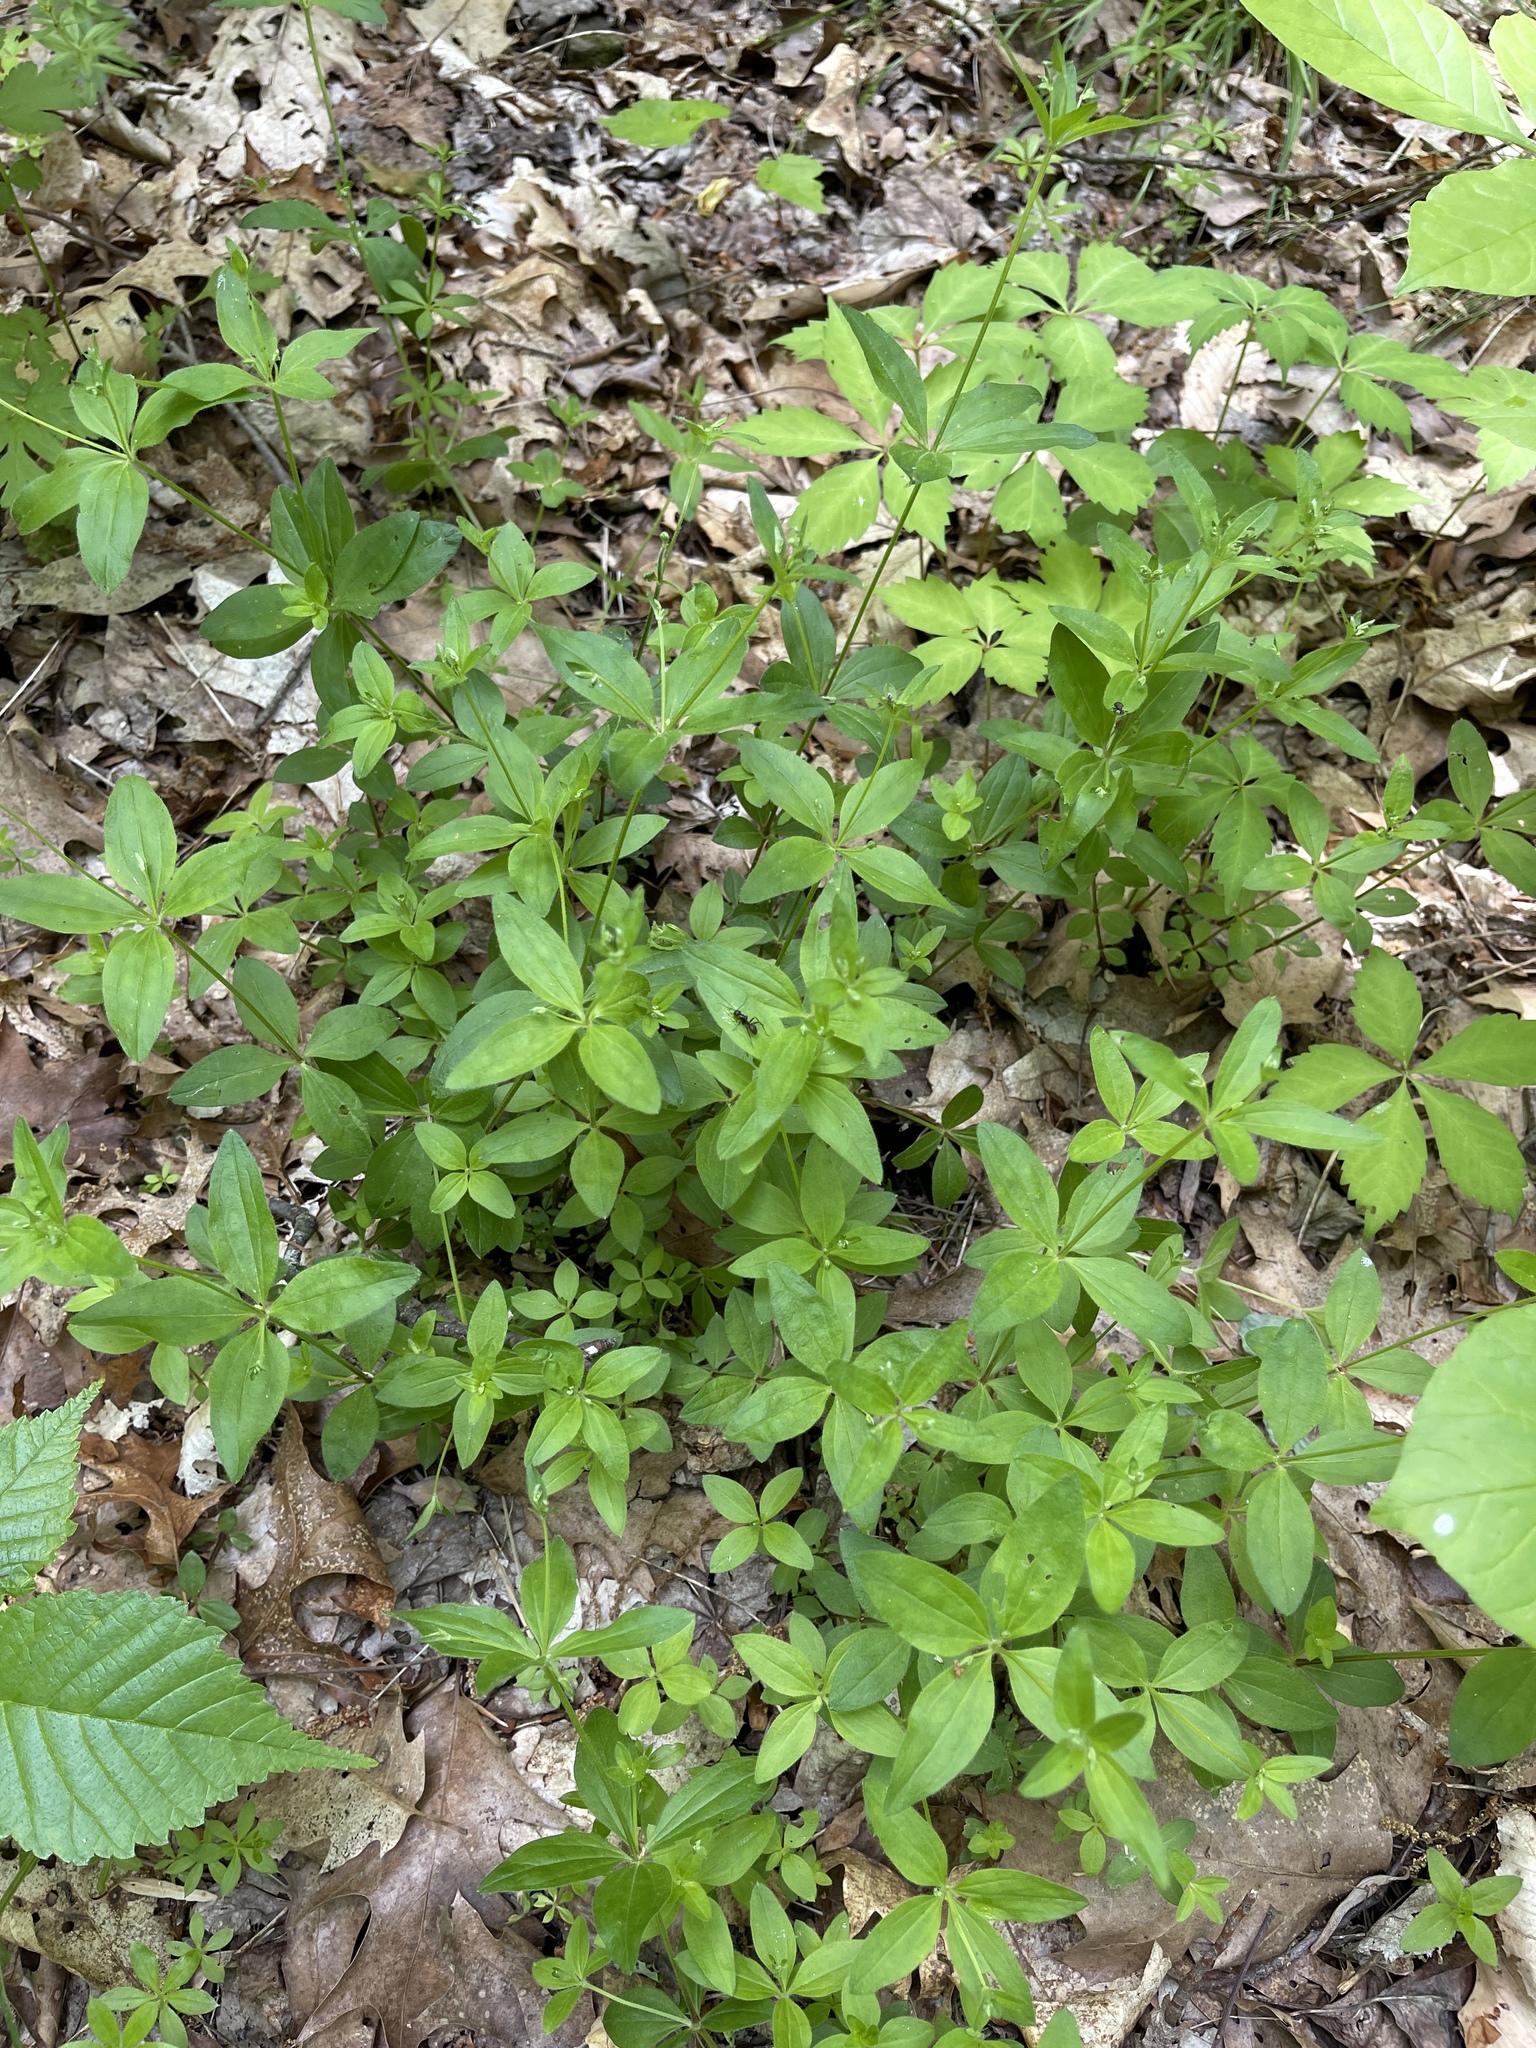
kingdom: Plantae
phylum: Tracheophyta
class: Magnoliopsida
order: Gentianales
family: Rubiaceae
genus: Galium
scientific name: Galium circaezans
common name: Forest bedstraw
